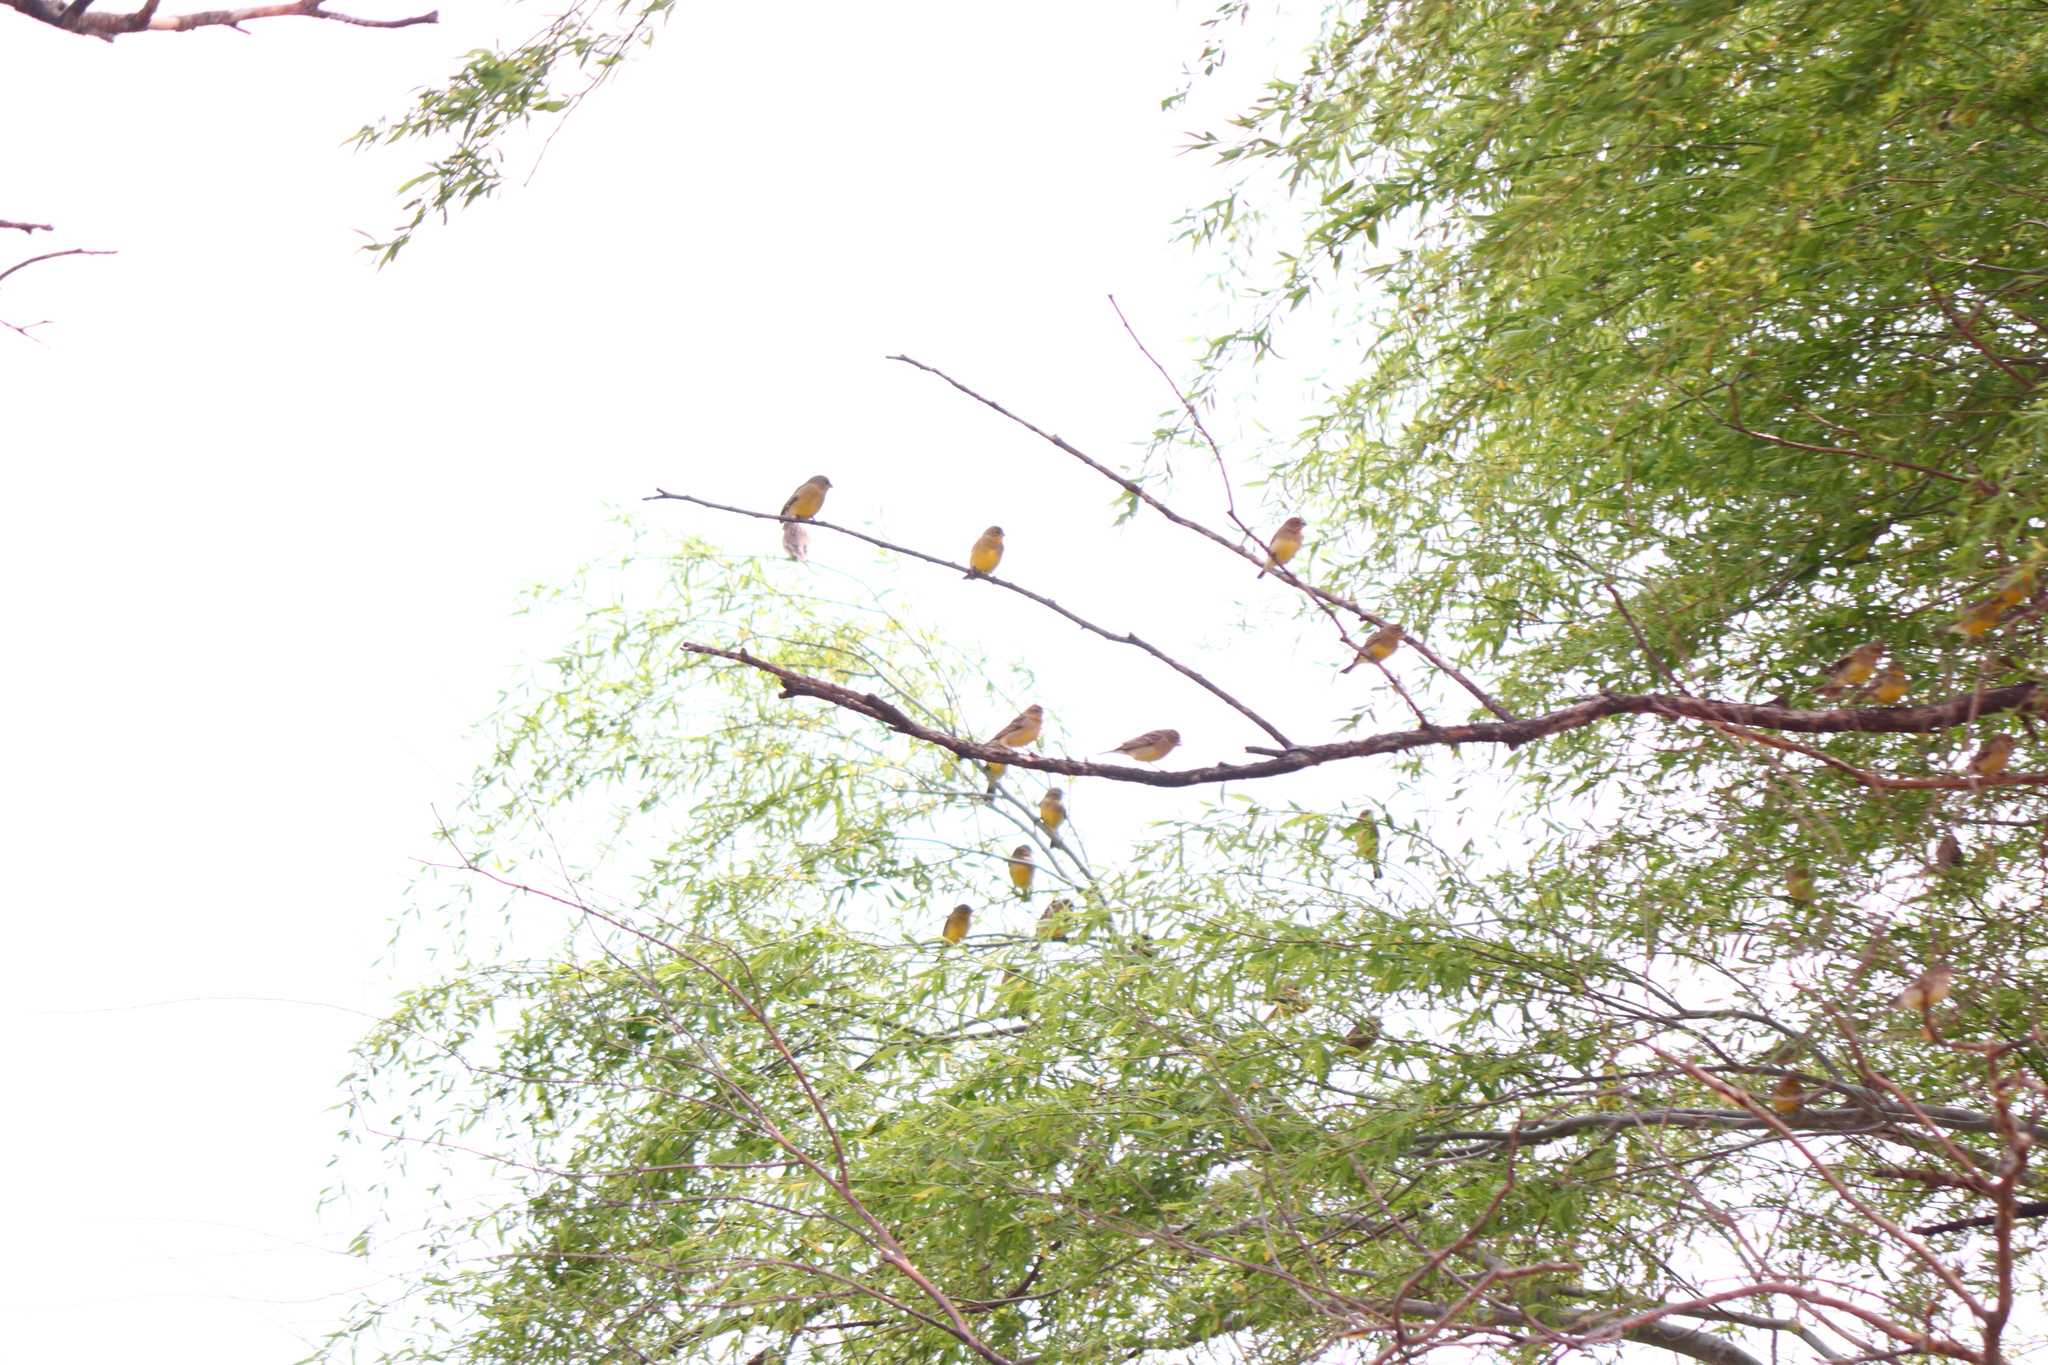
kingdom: Animalia
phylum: Chordata
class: Aves
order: Passeriformes
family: Thraupidae
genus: Sicalis
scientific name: Sicalis luteola
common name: Grassland yellow-finch
